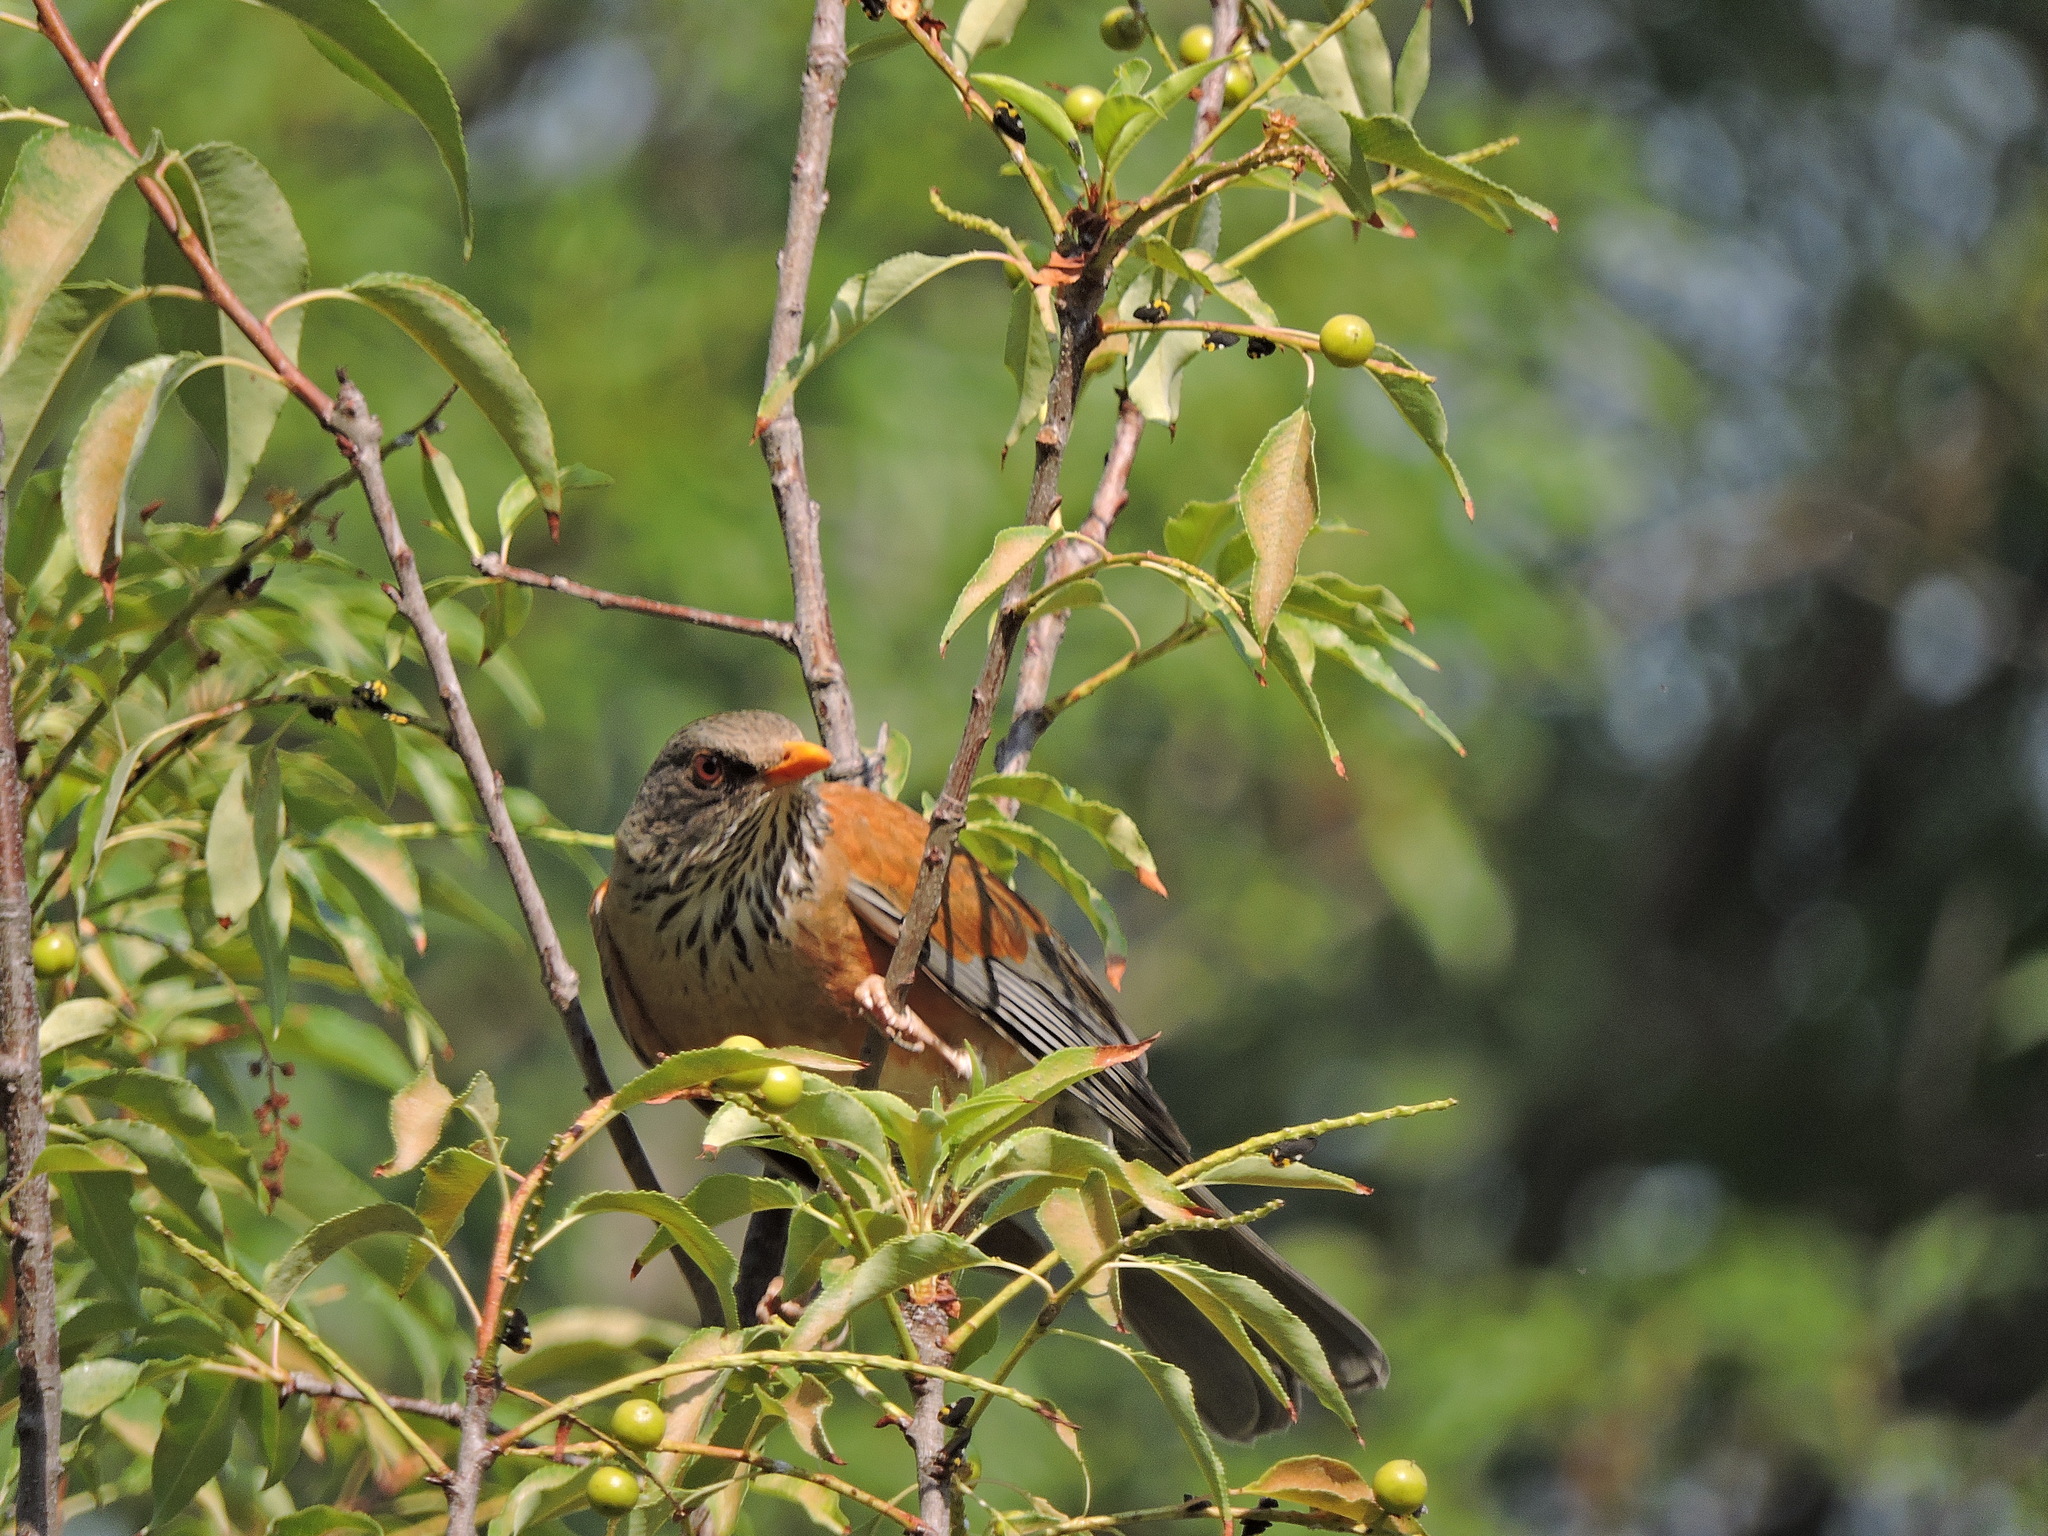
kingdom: Animalia
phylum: Chordata
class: Aves
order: Passeriformes
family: Turdidae
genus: Turdus
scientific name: Turdus rufopalliatus
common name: Rufous-backed robin
